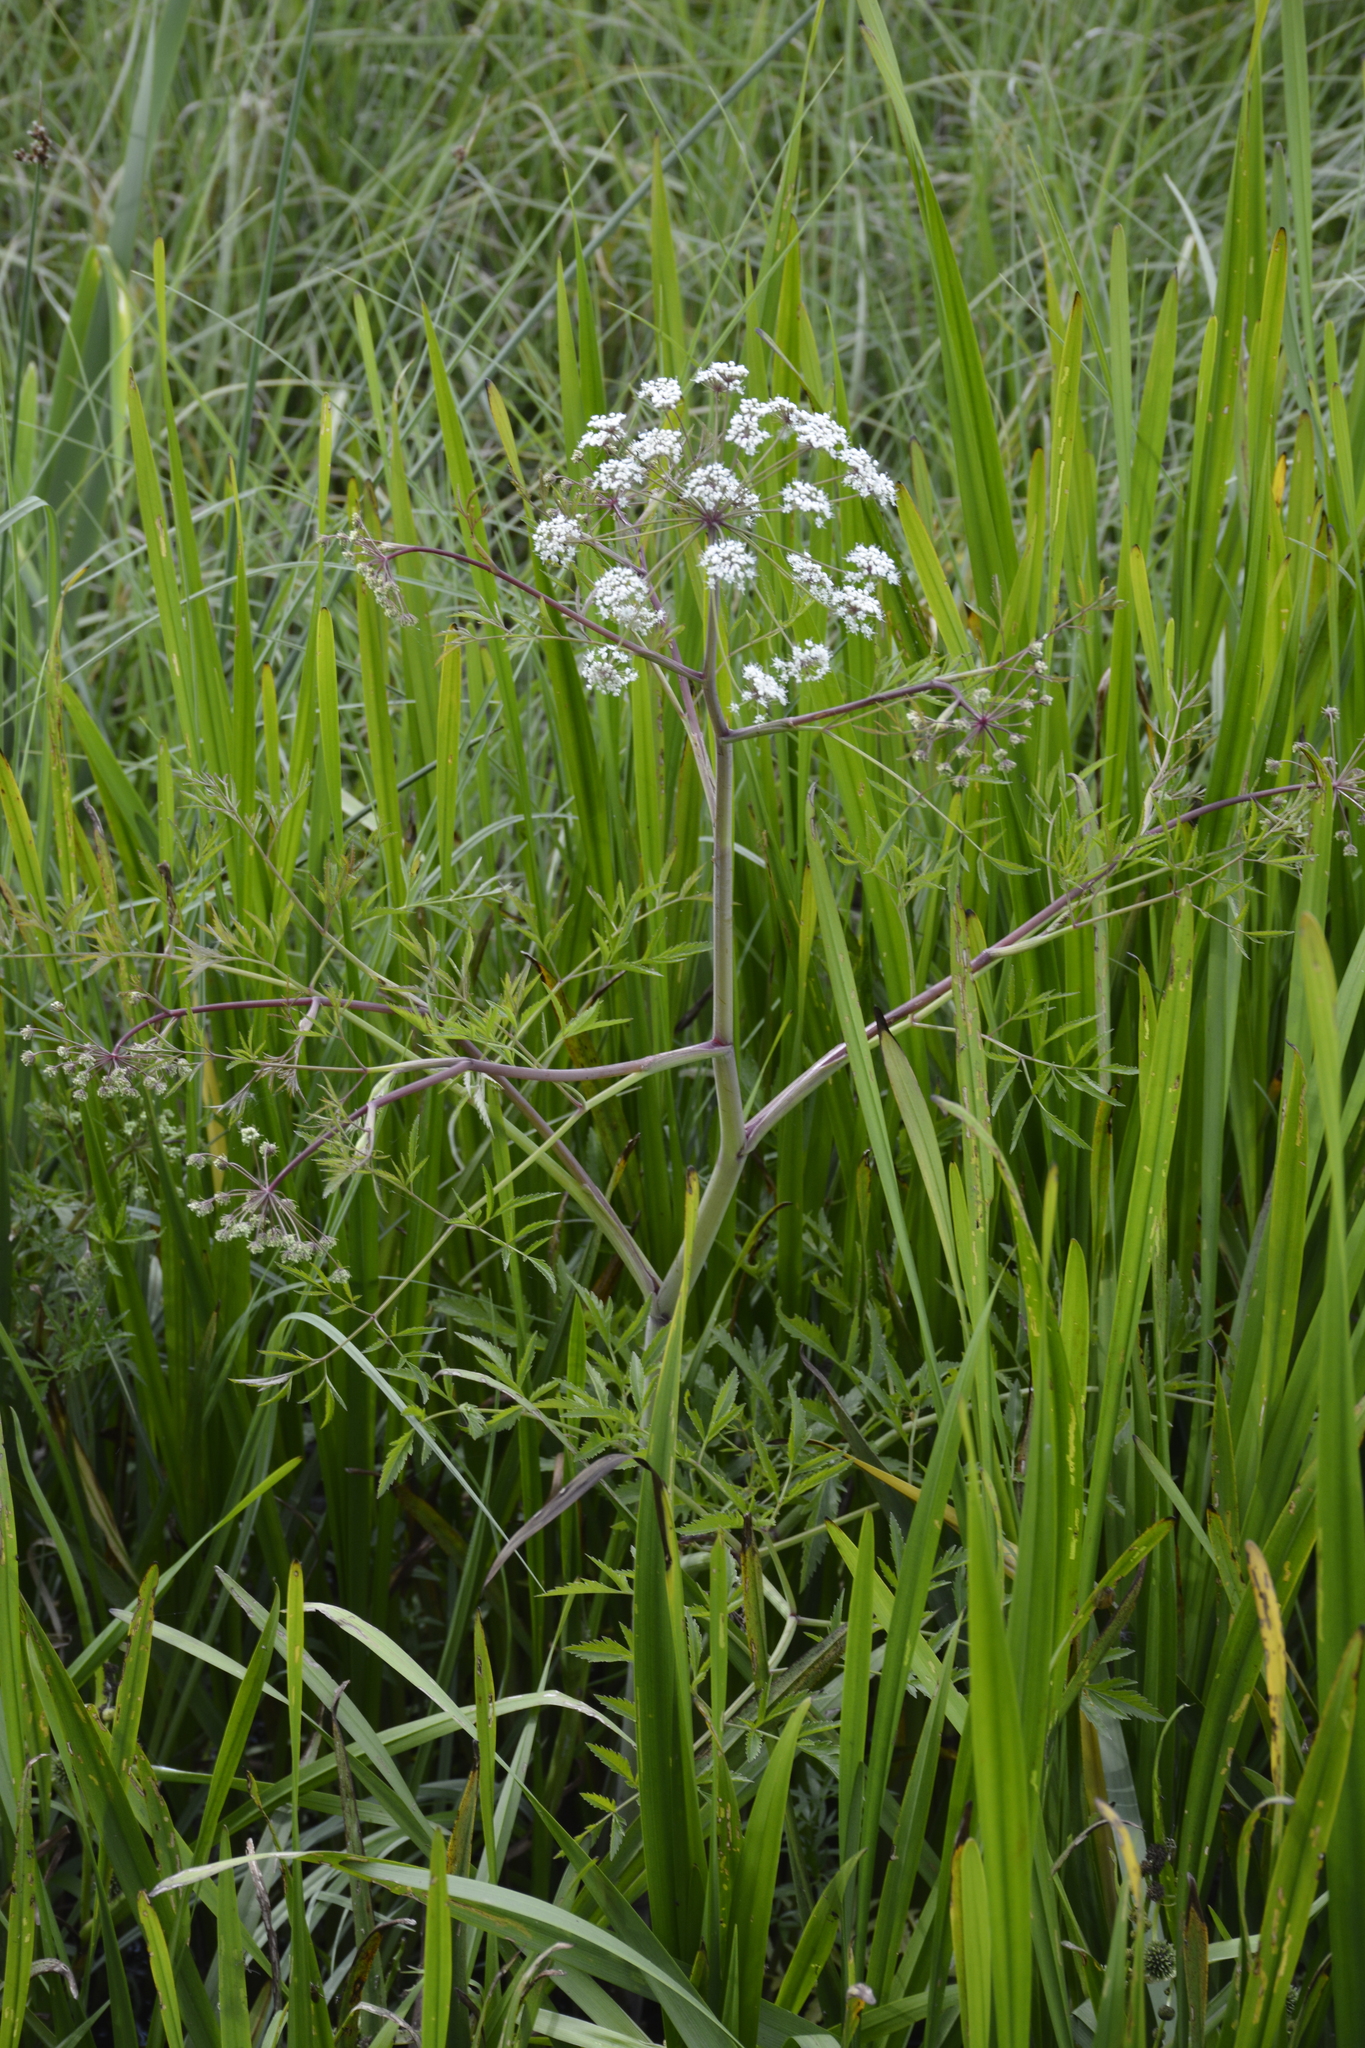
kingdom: Plantae
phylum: Tracheophyta
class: Magnoliopsida
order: Apiales
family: Apiaceae
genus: Cicuta
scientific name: Cicuta virosa
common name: Cowbane
